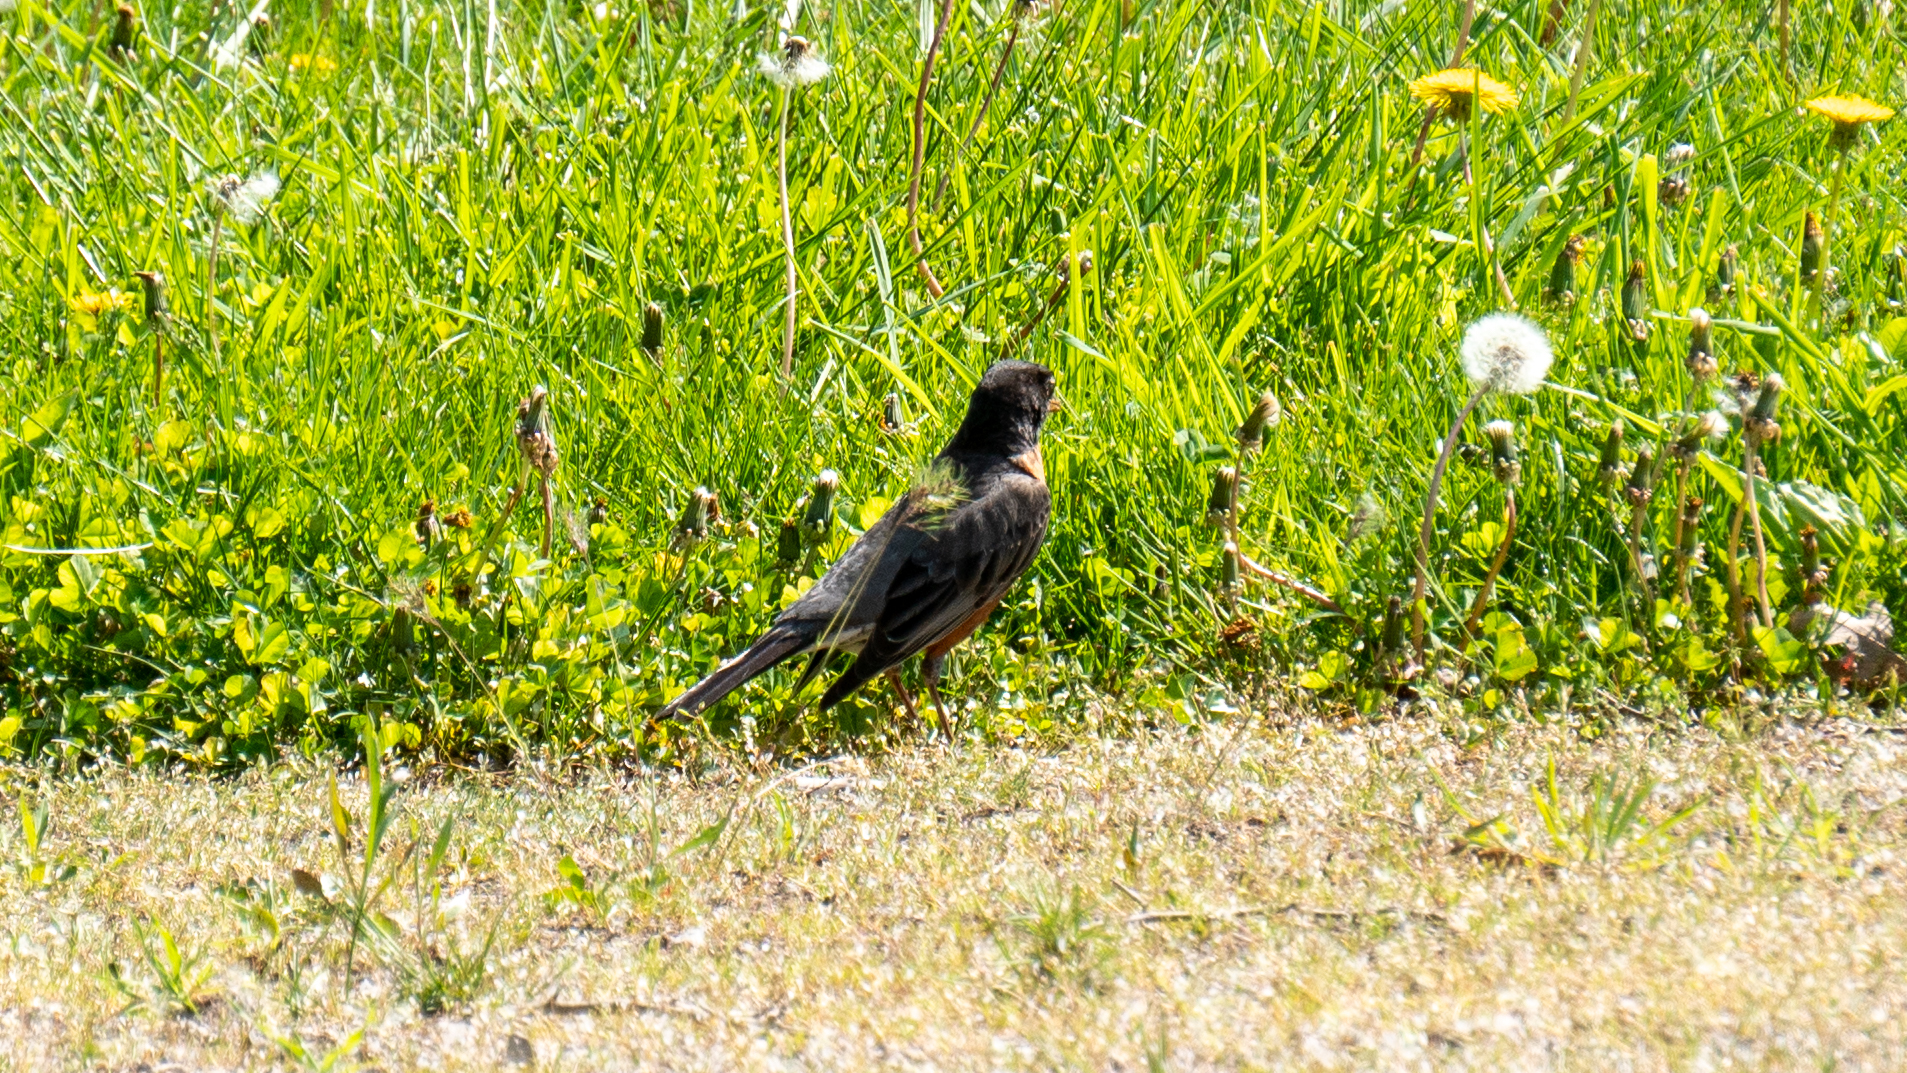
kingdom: Animalia
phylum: Chordata
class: Aves
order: Passeriformes
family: Turdidae
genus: Turdus
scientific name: Turdus migratorius
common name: American robin
